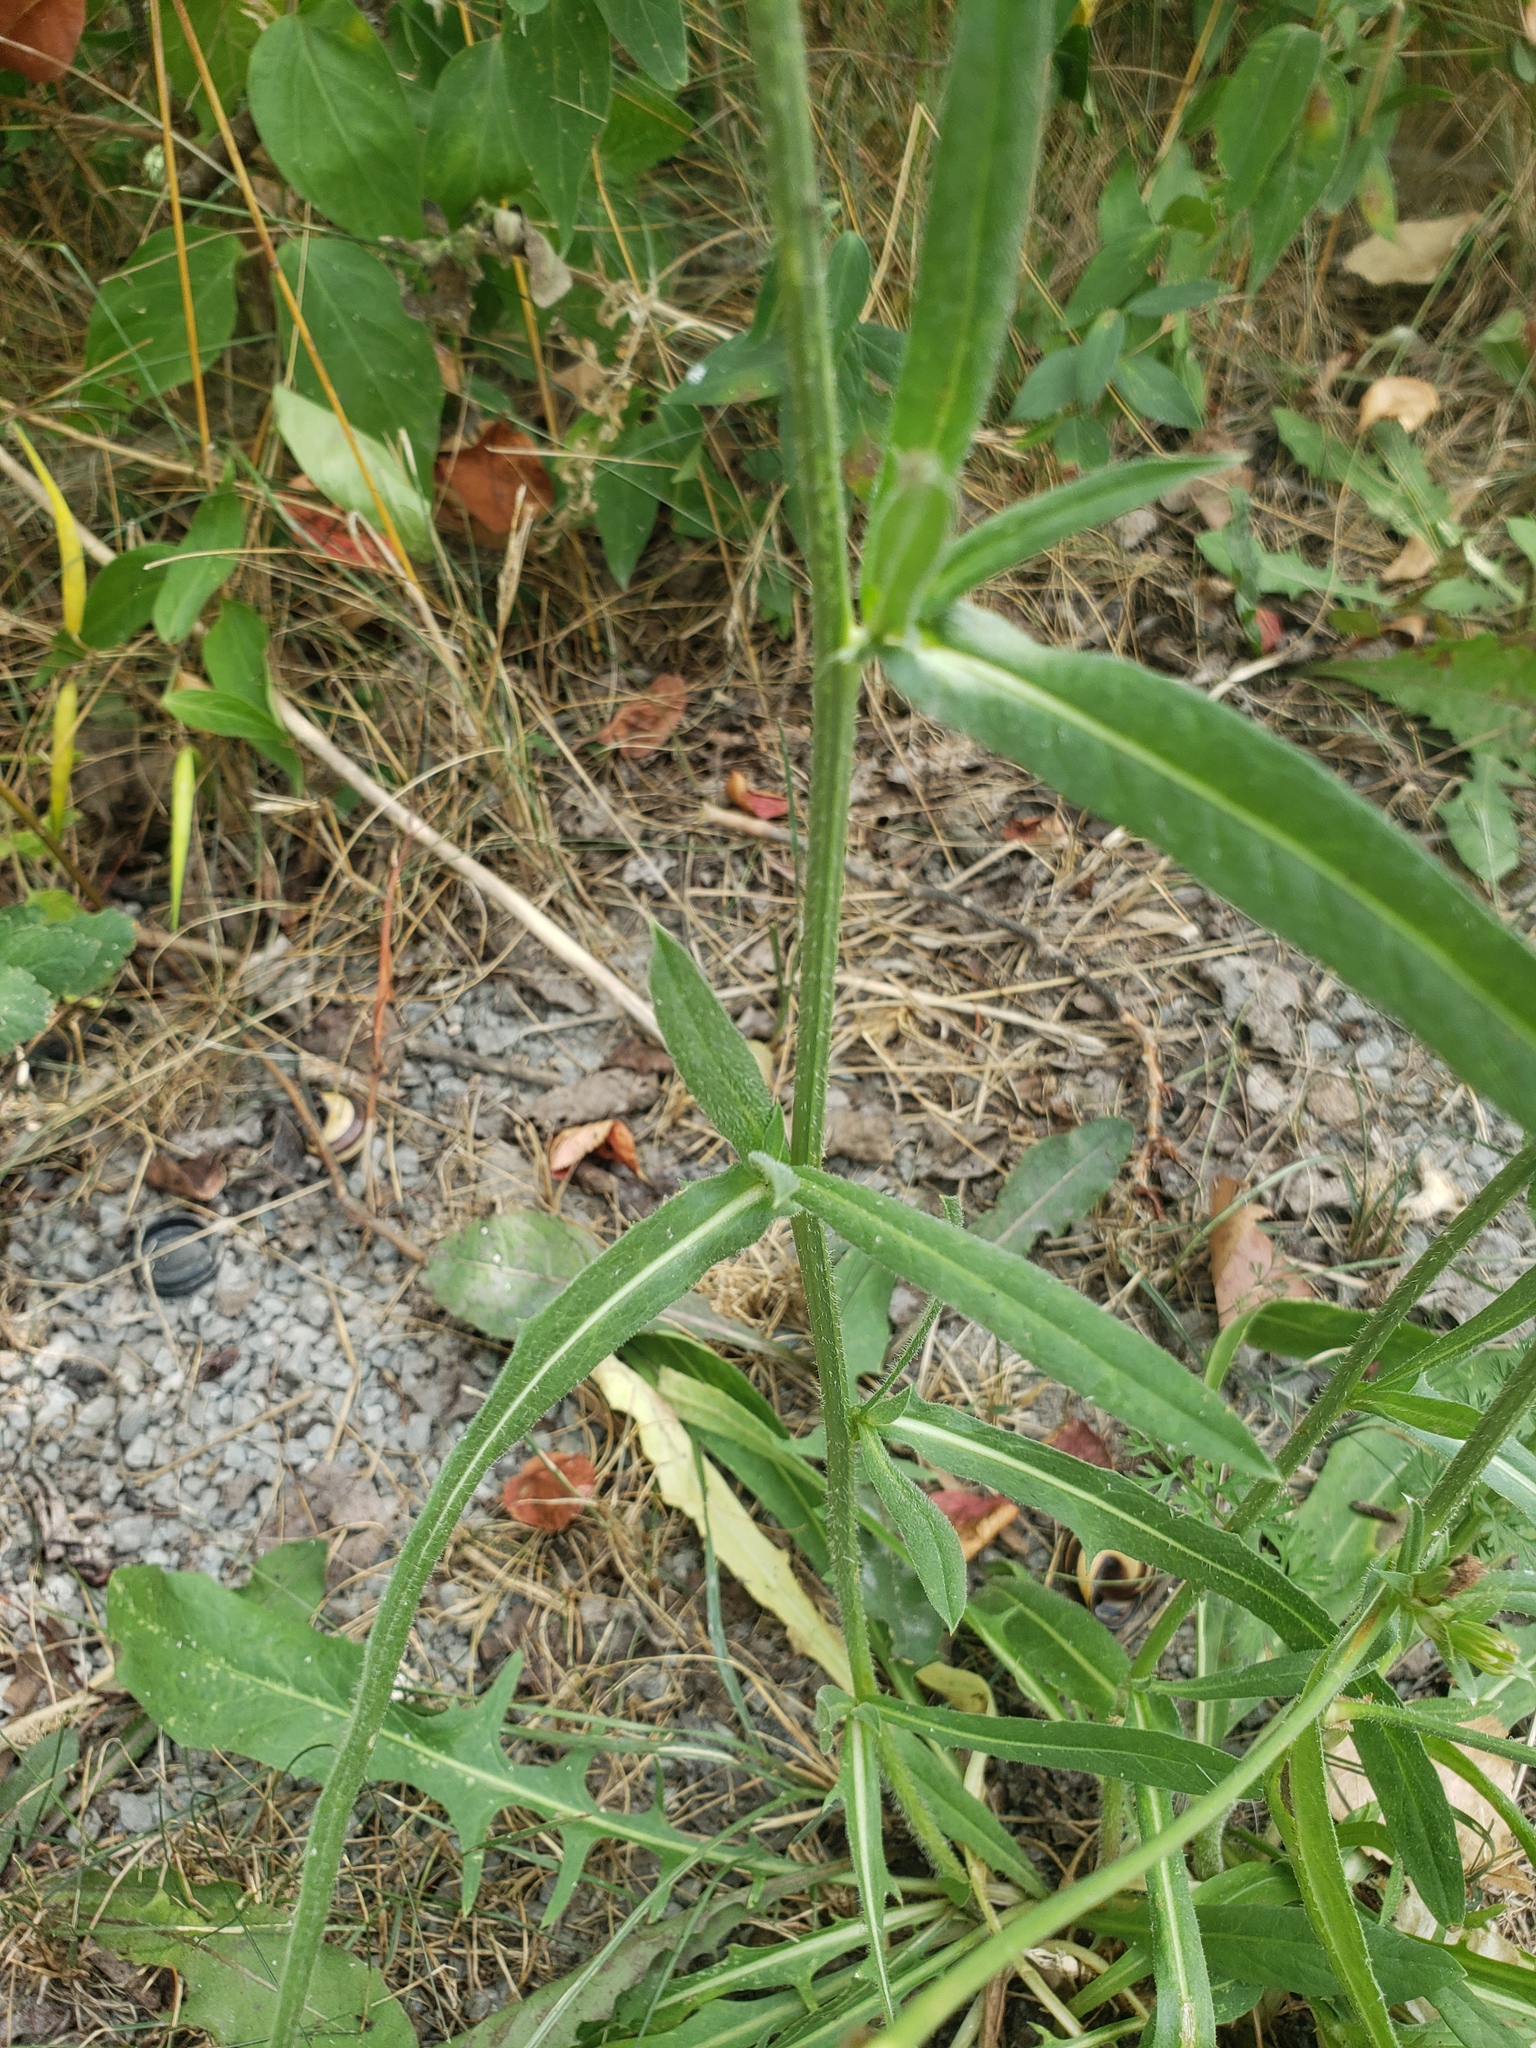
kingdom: Plantae
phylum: Tracheophyta
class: Magnoliopsida
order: Asterales
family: Asteraceae
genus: Cichorium
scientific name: Cichorium intybus
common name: Chicory
